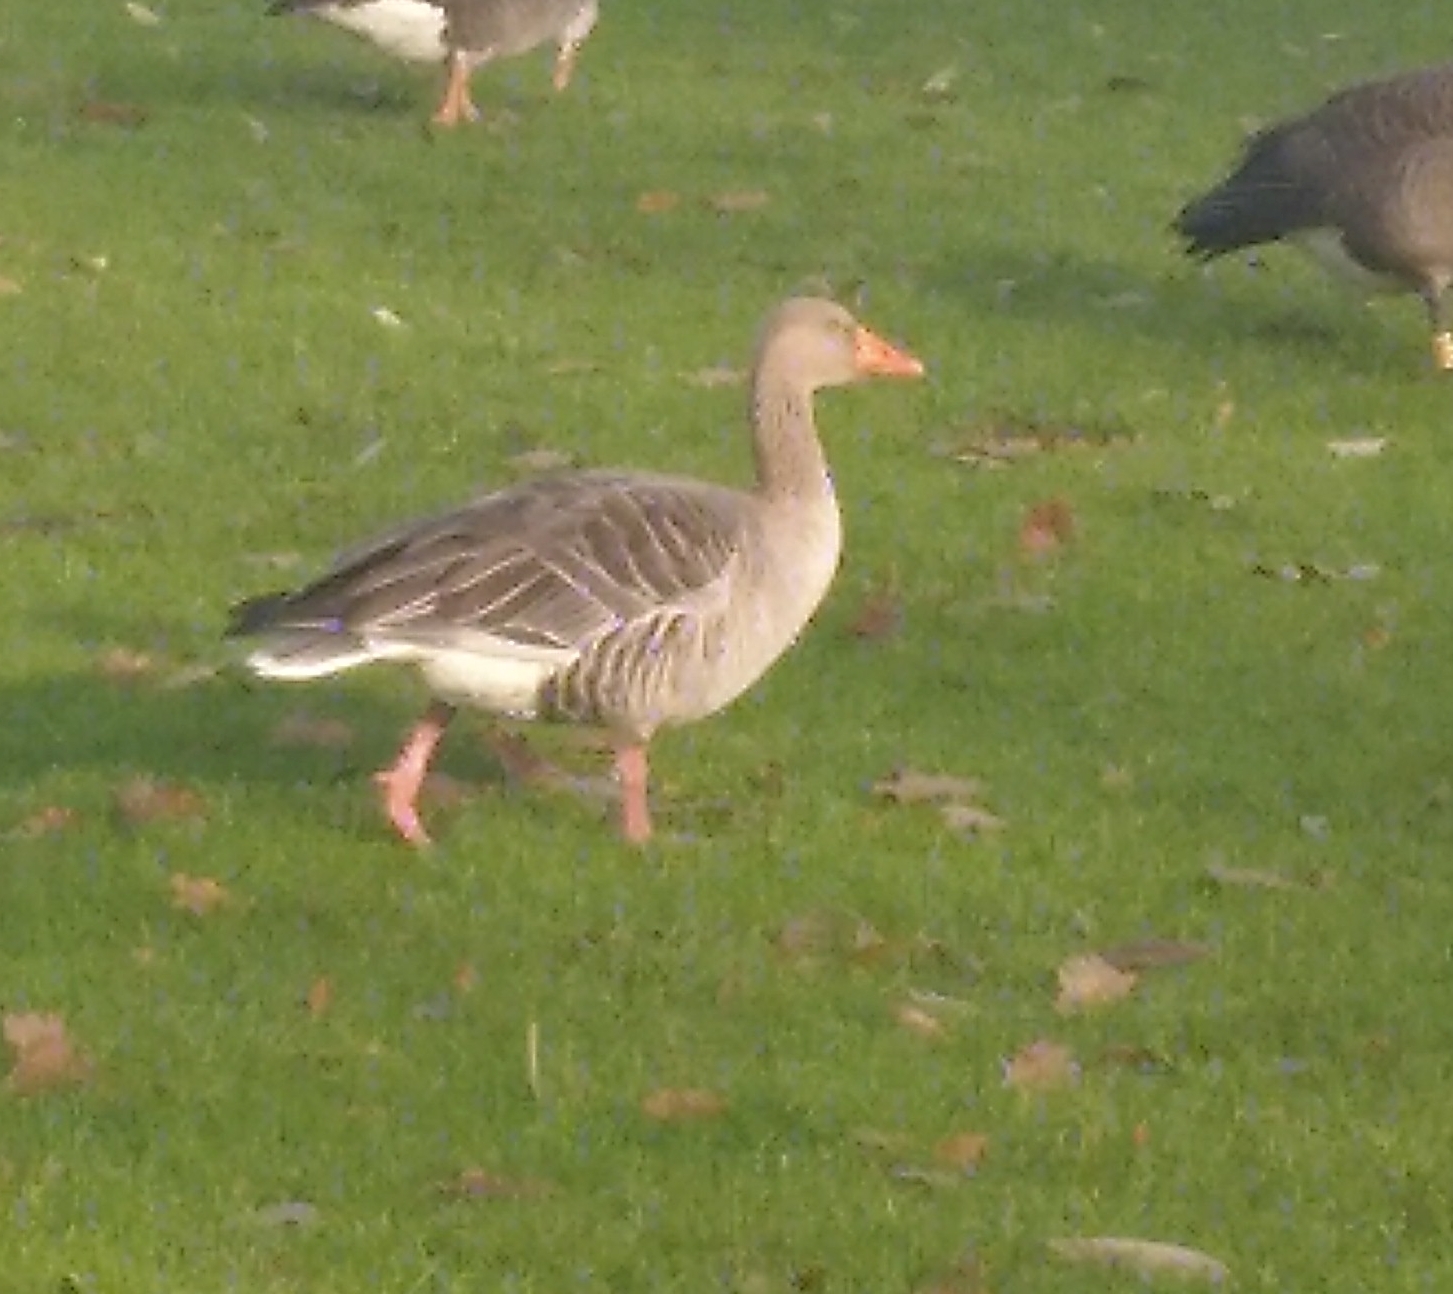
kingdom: Animalia
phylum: Chordata
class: Aves
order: Anseriformes
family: Anatidae
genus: Anser
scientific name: Anser anser
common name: Greylag goose
